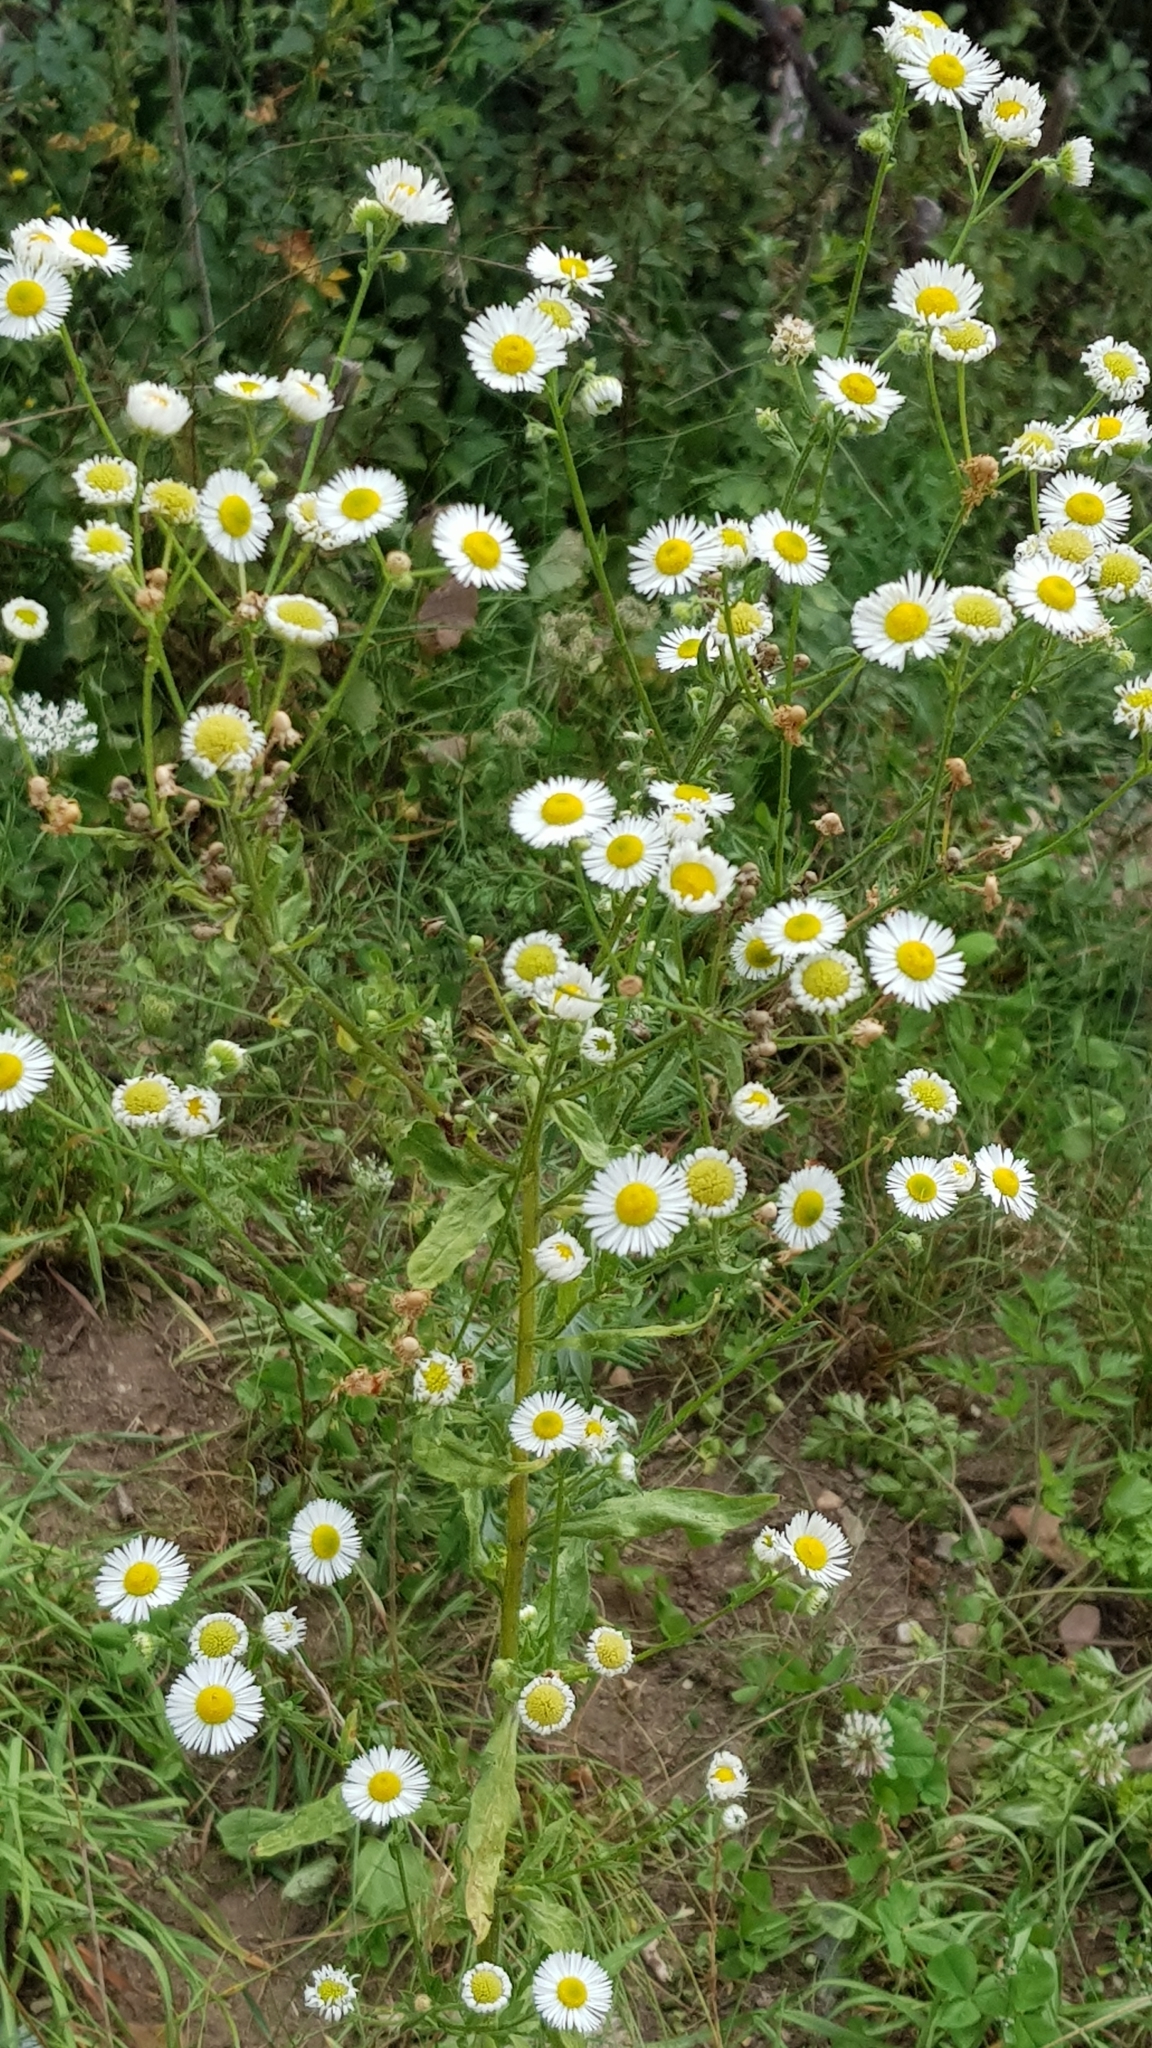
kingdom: Plantae
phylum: Tracheophyta
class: Magnoliopsida
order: Asterales
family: Asteraceae
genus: Erigeron
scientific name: Erigeron annuus
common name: Tall fleabane
